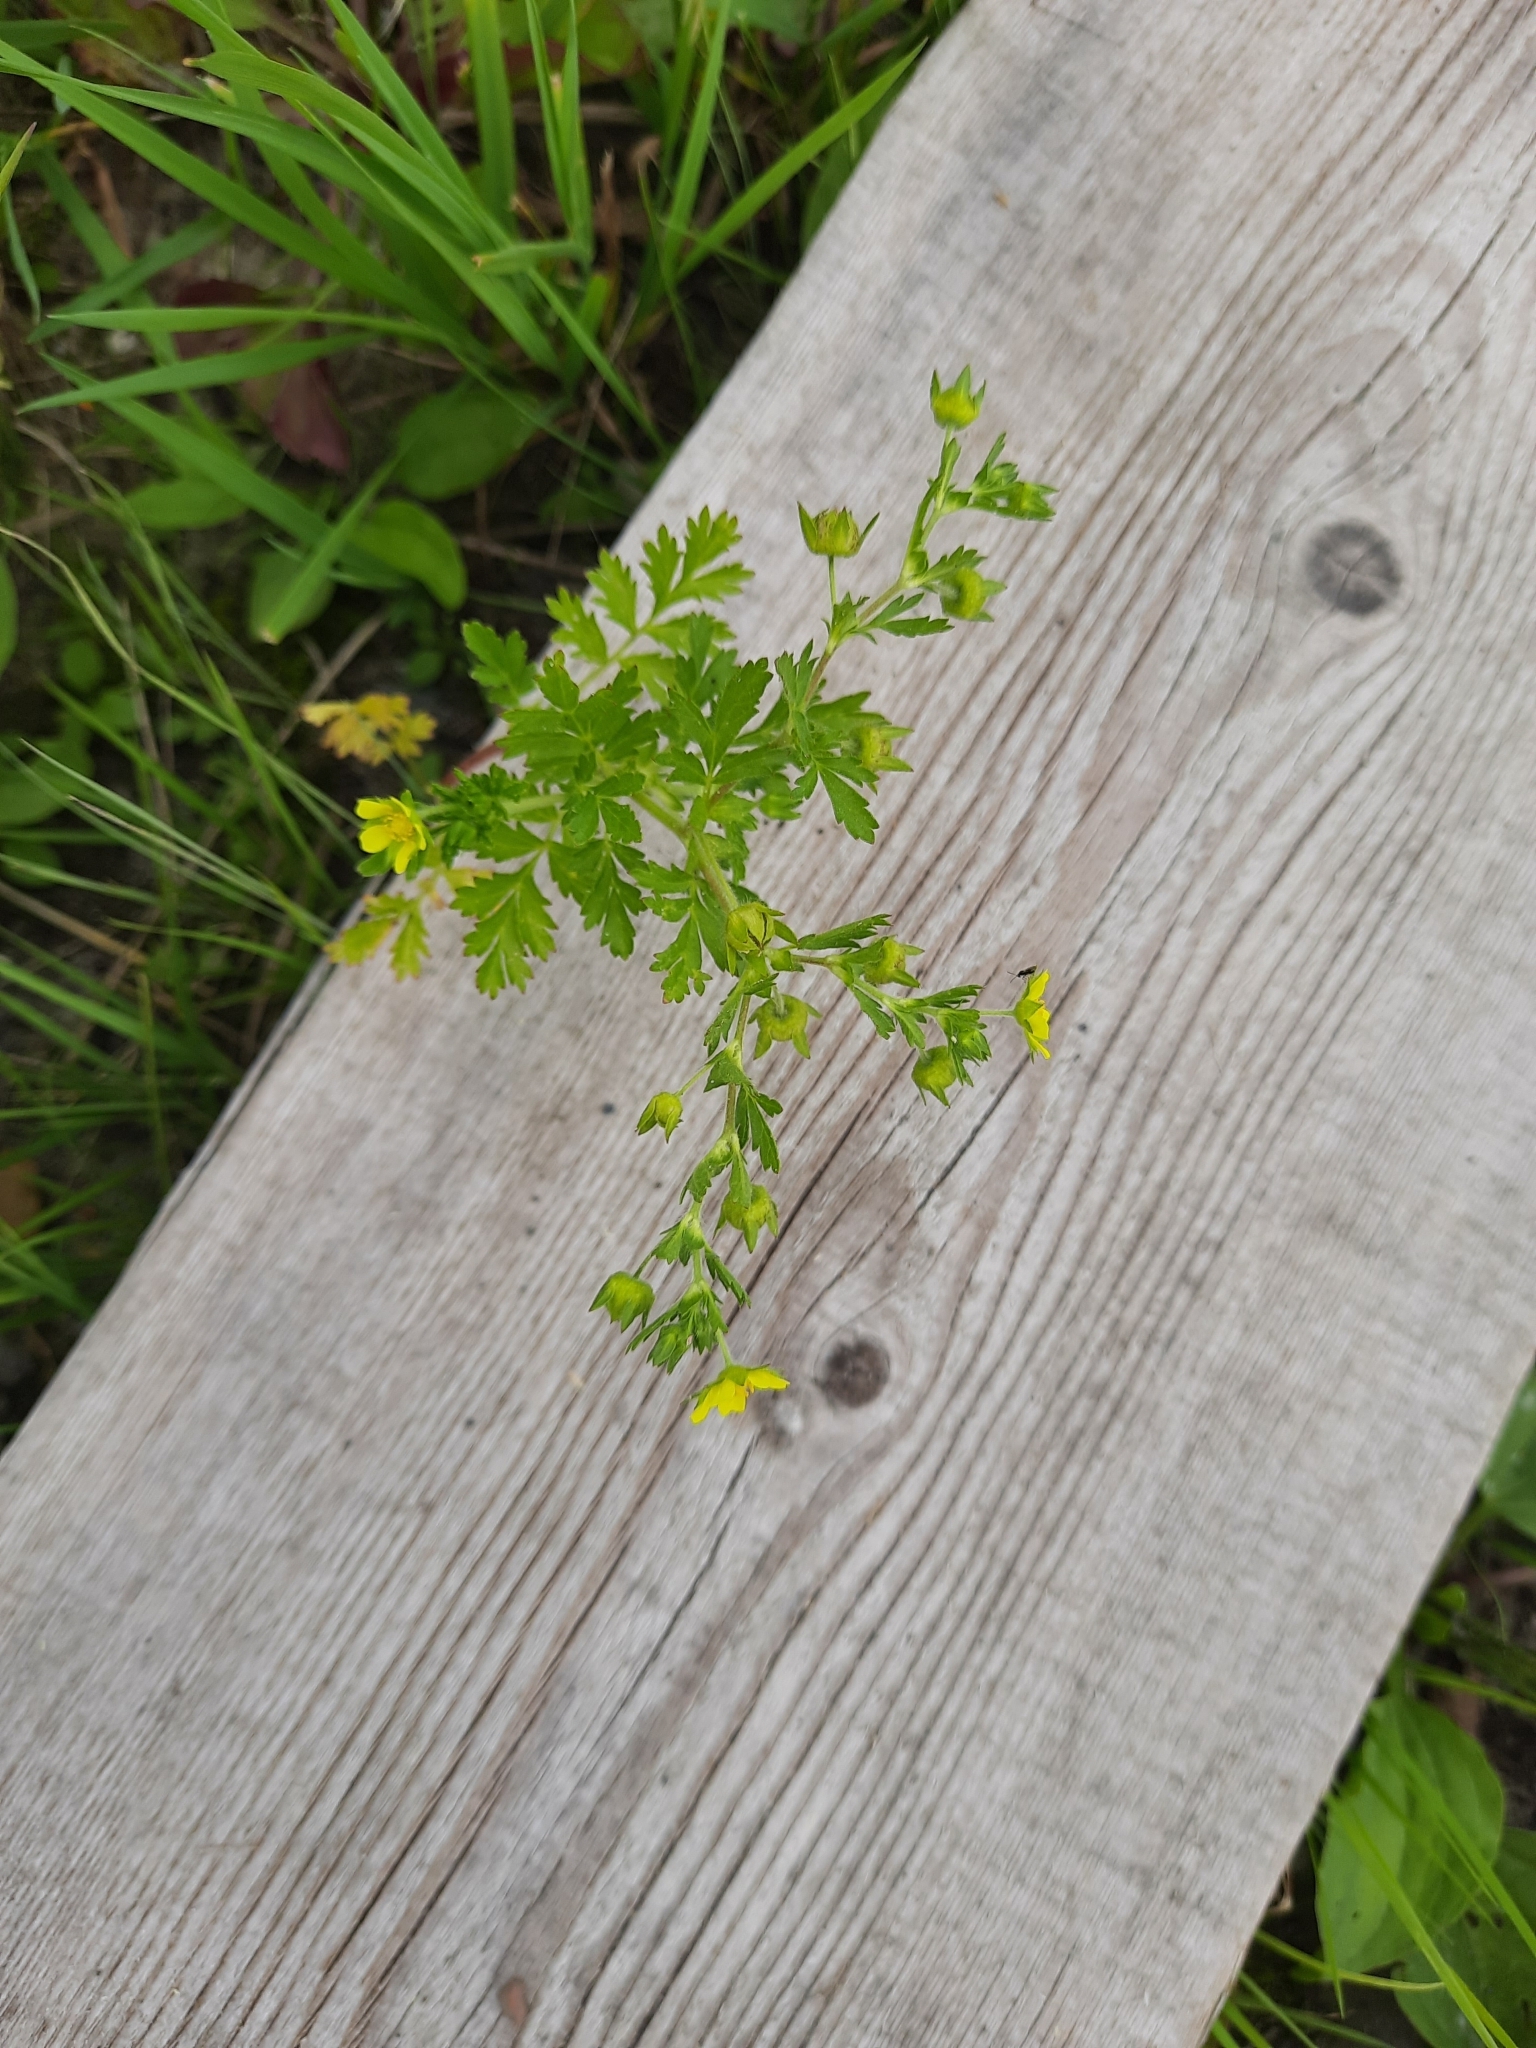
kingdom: Plantae
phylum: Tracheophyta
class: Magnoliopsida
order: Rosales
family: Rosaceae
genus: Potentilla
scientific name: Potentilla supina
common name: Prostrate cinquefoil
